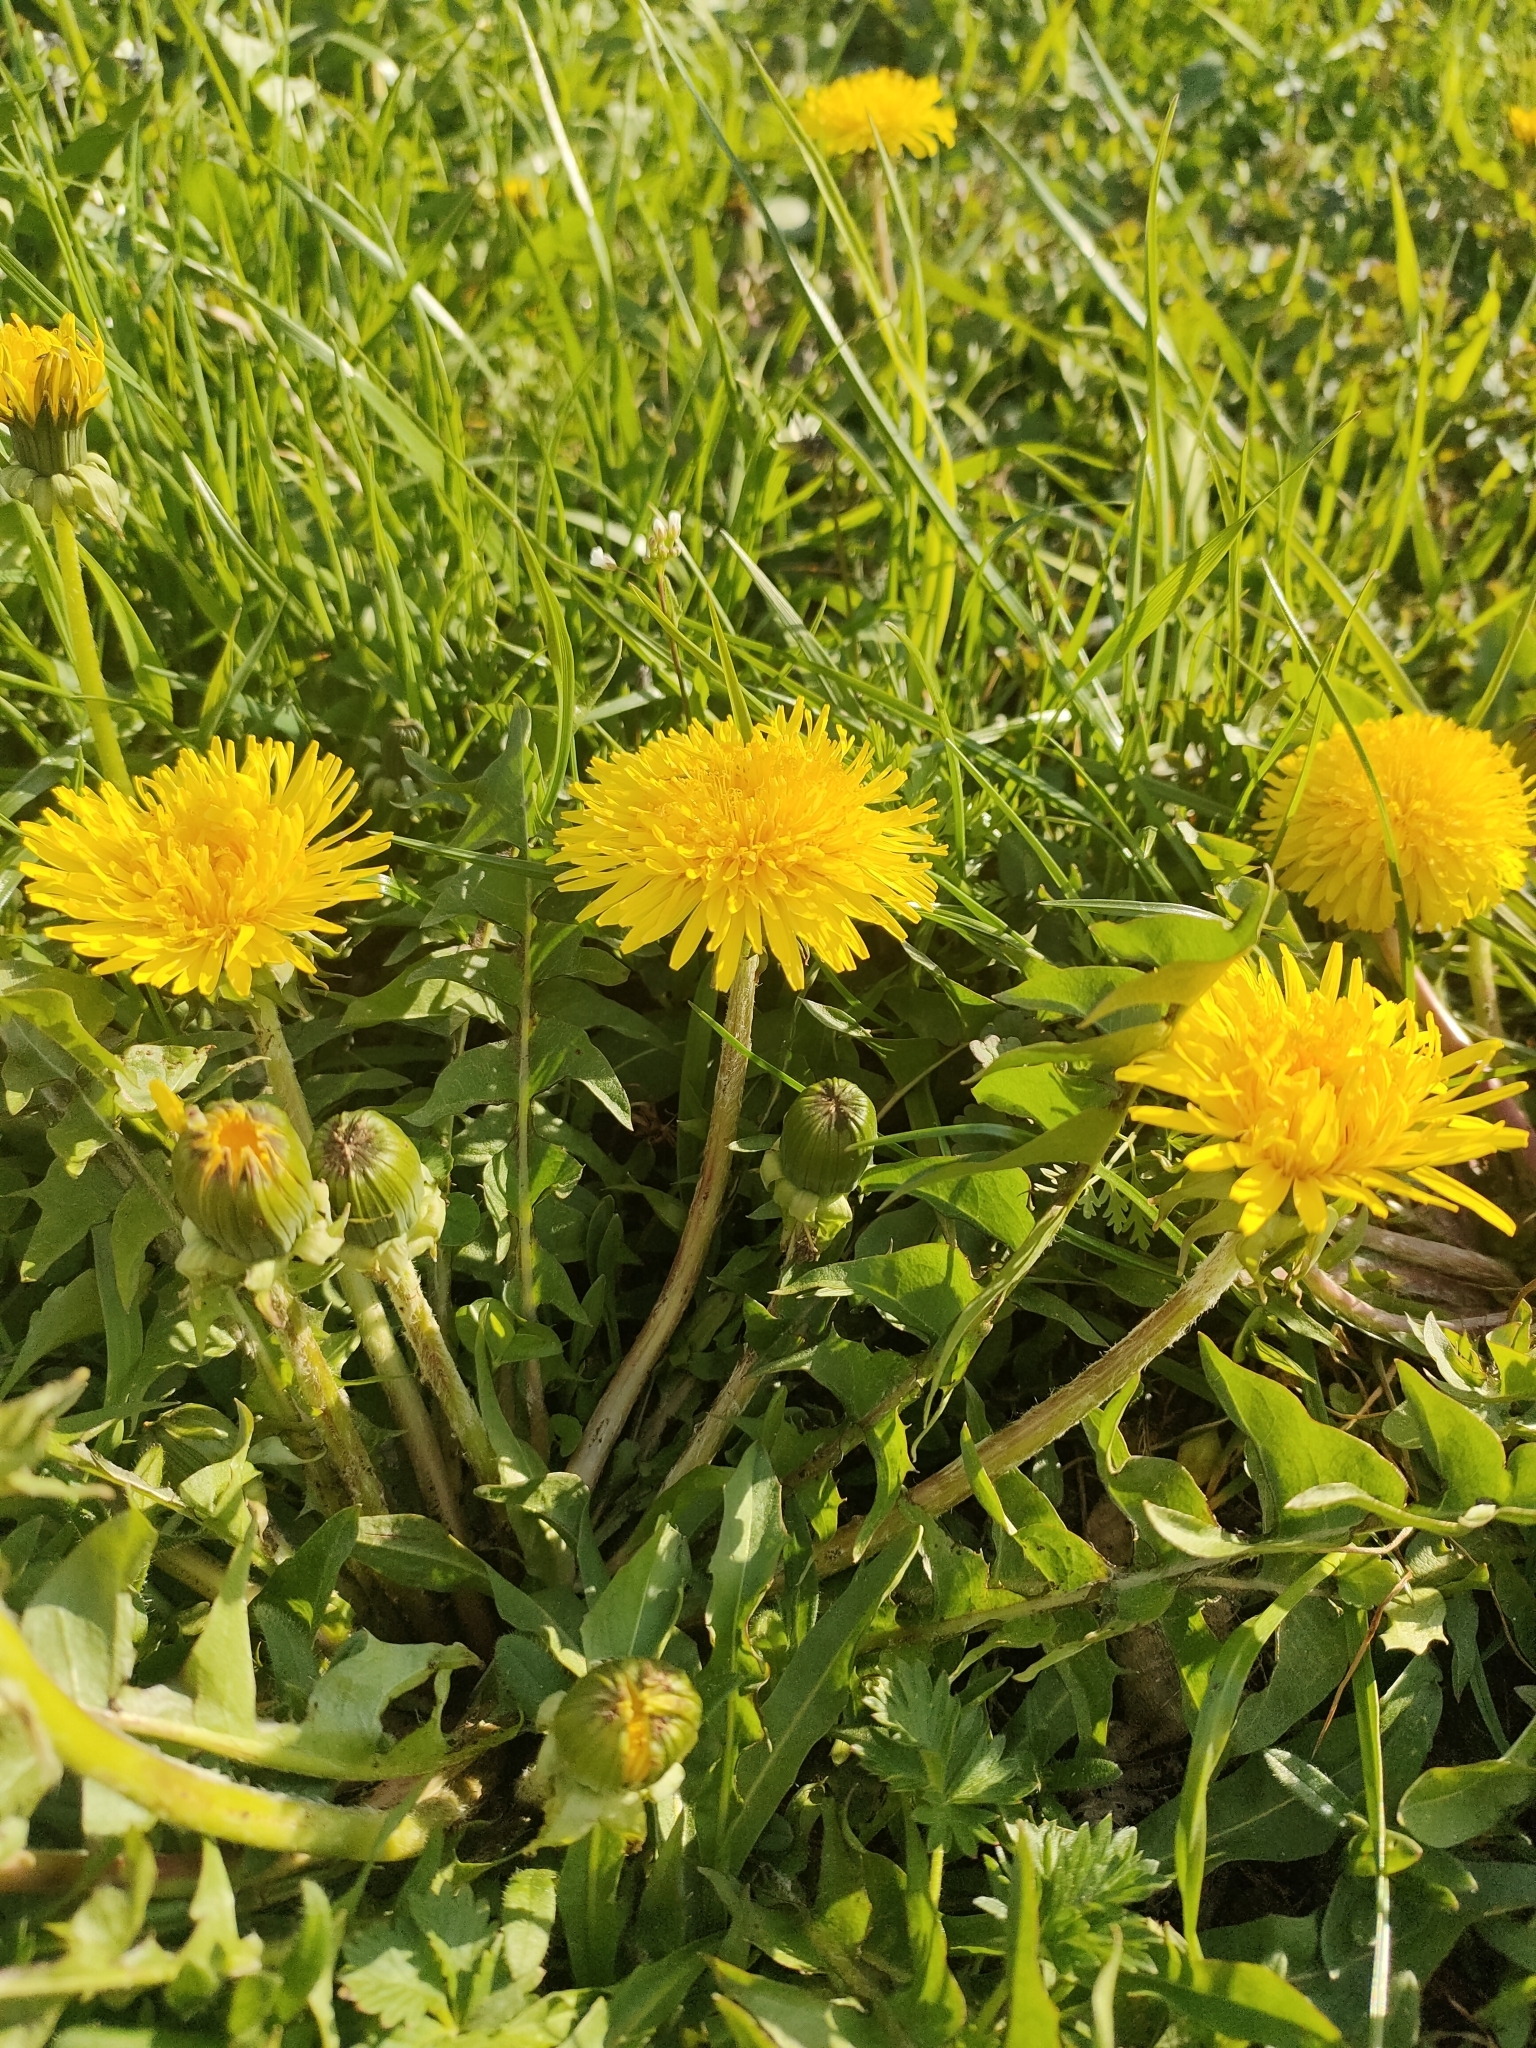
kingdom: Plantae
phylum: Tracheophyta
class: Magnoliopsida
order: Asterales
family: Asteraceae
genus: Taraxacum
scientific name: Taraxacum officinale
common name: Common dandelion
